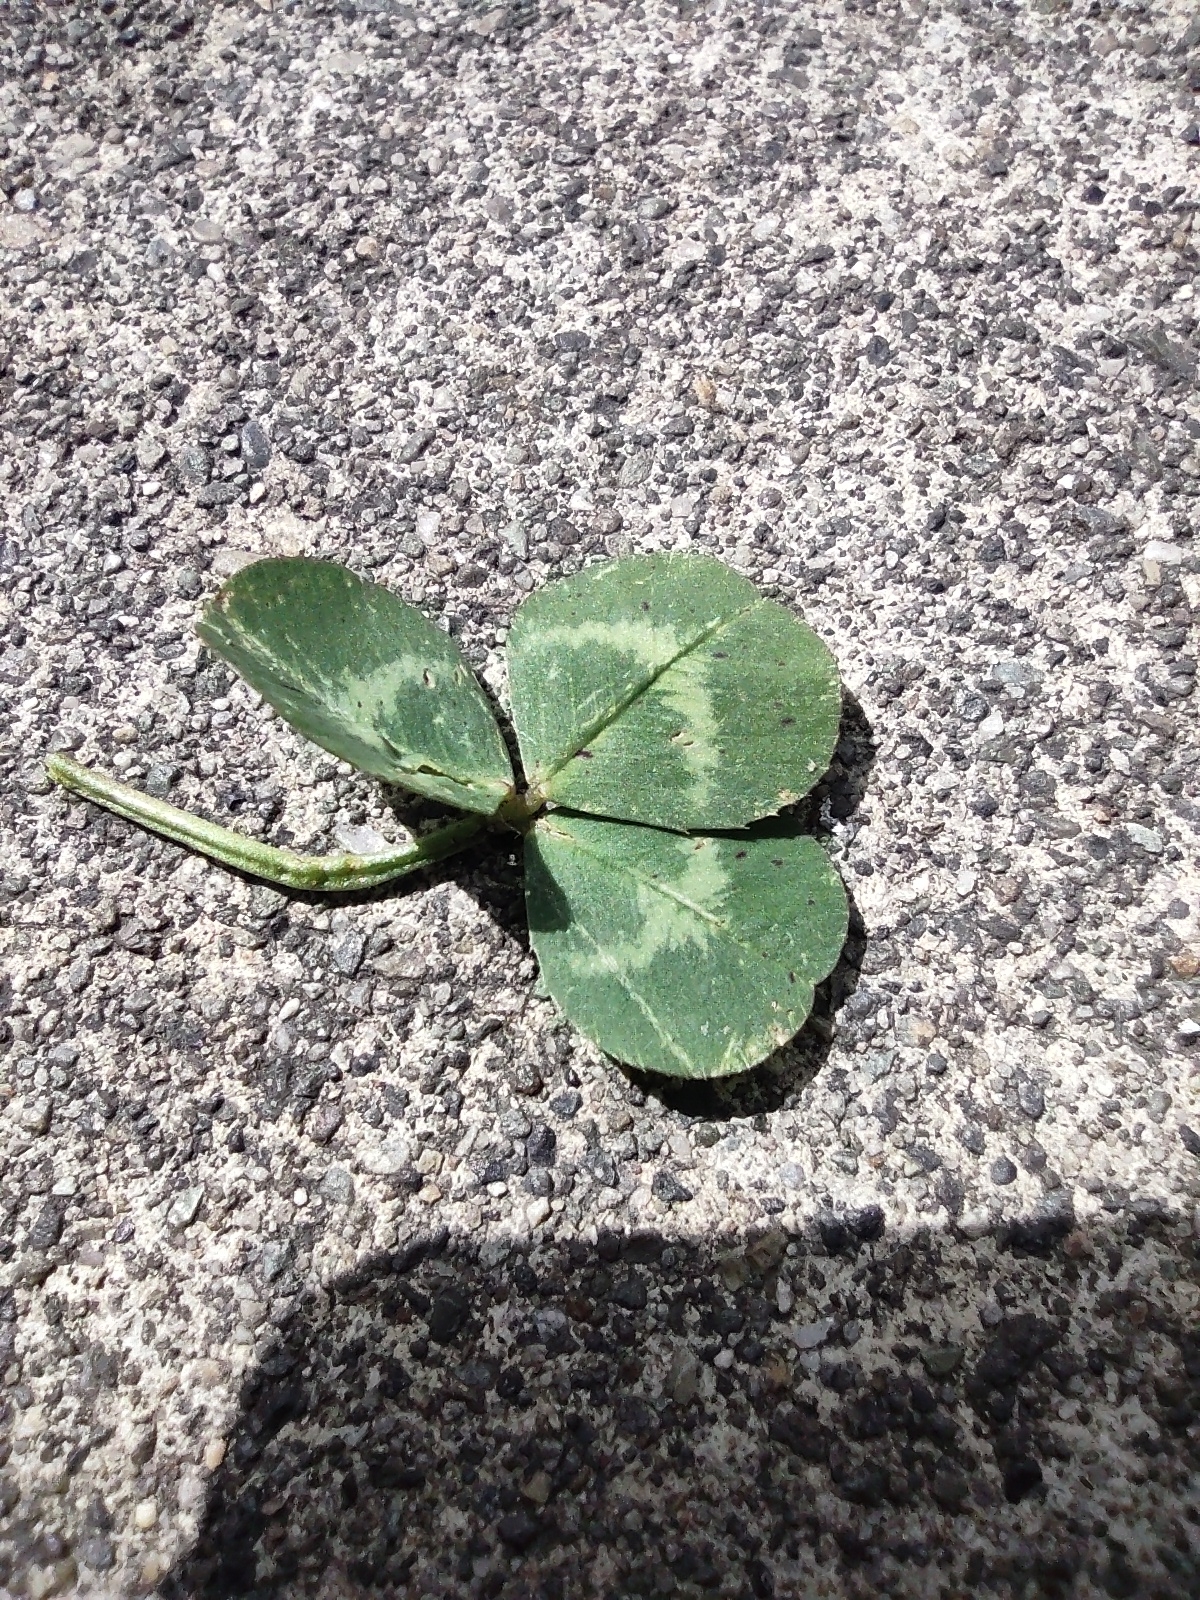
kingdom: Plantae
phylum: Tracheophyta
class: Magnoliopsida
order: Fabales
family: Fabaceae
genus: Trifolium
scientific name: Trifolium repens
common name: White clover
